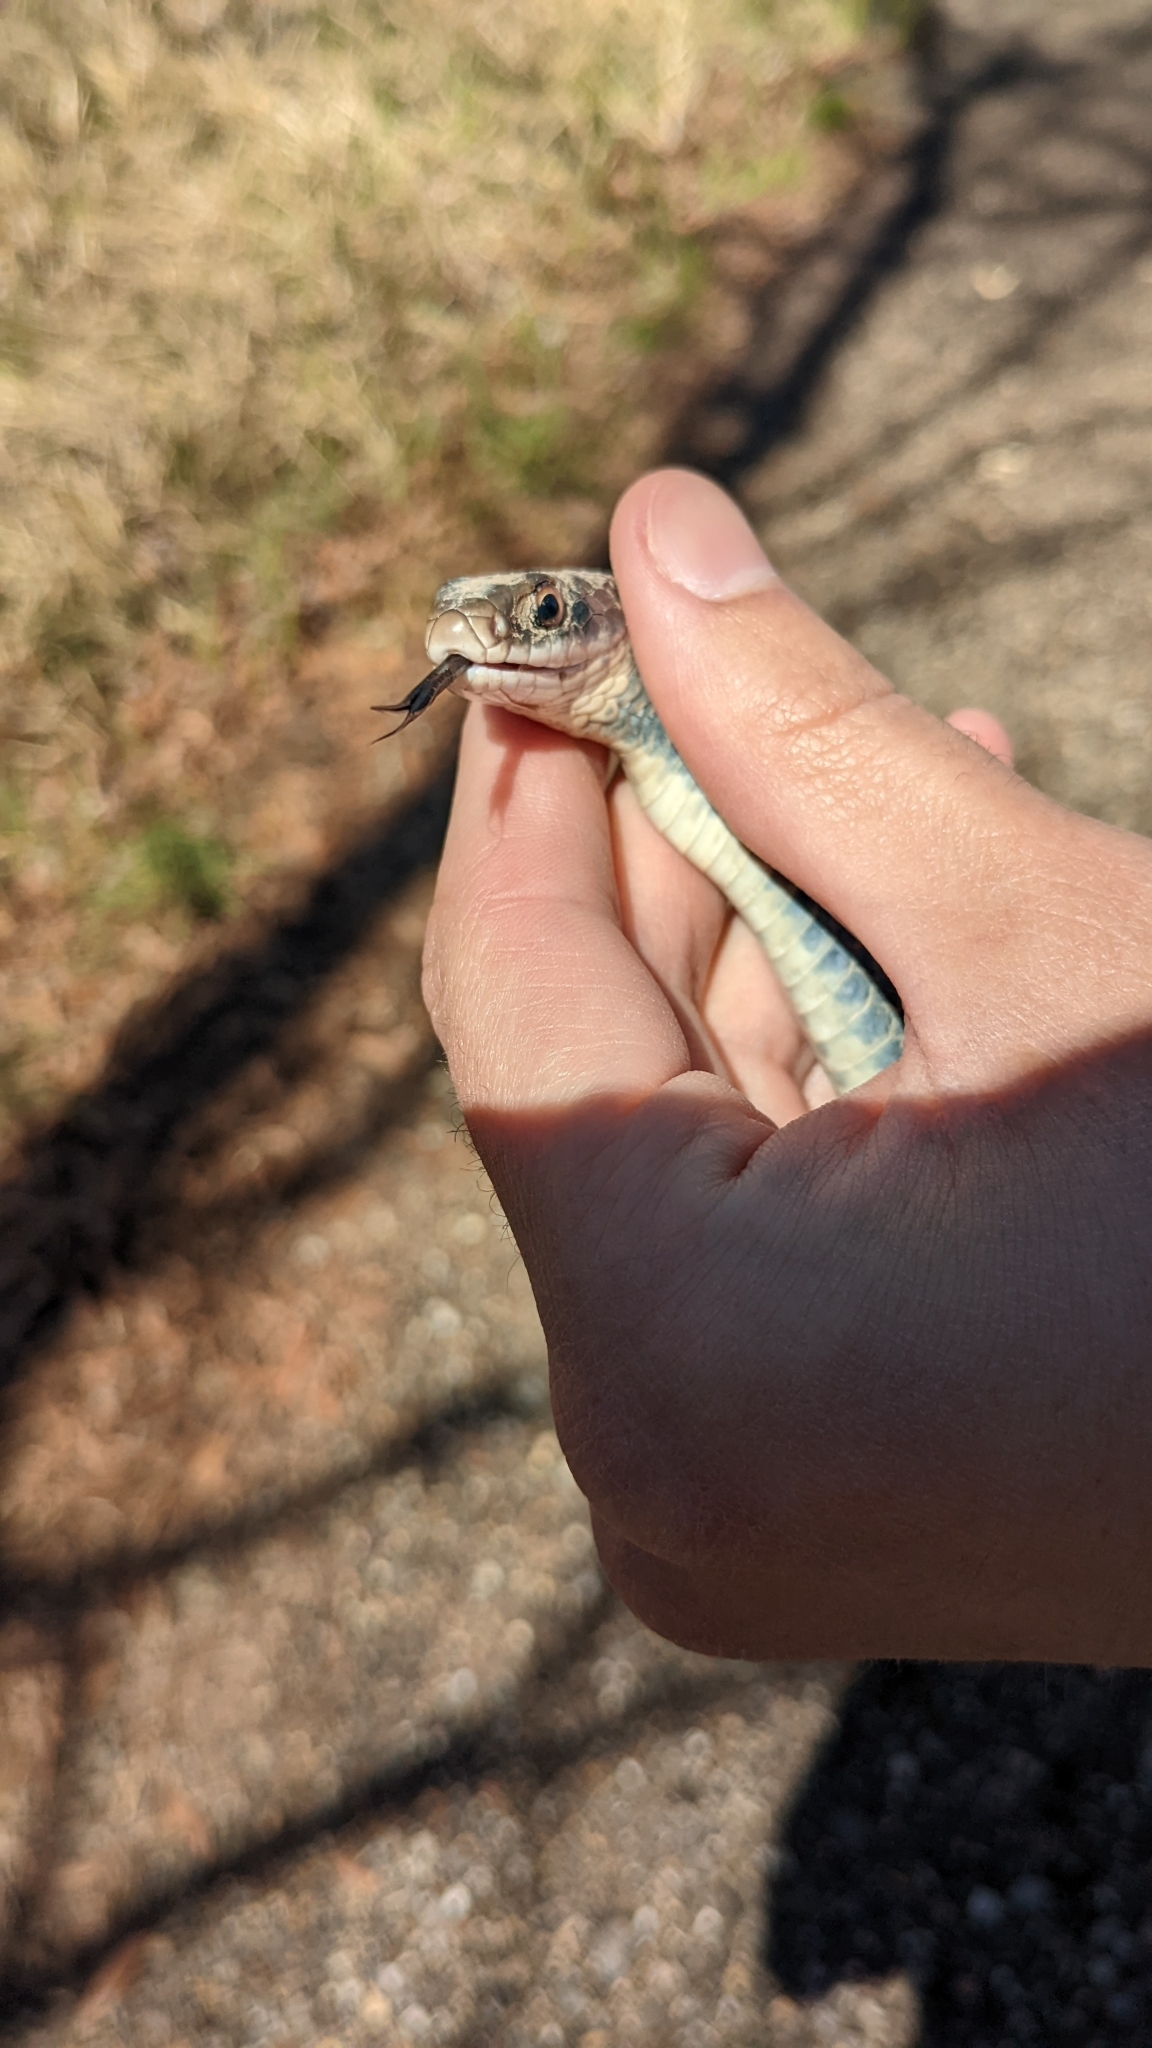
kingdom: Animalia
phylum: Chordata
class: Squamata
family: Colubridae
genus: Coluber
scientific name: Coluber constrictor
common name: Eastern racer
